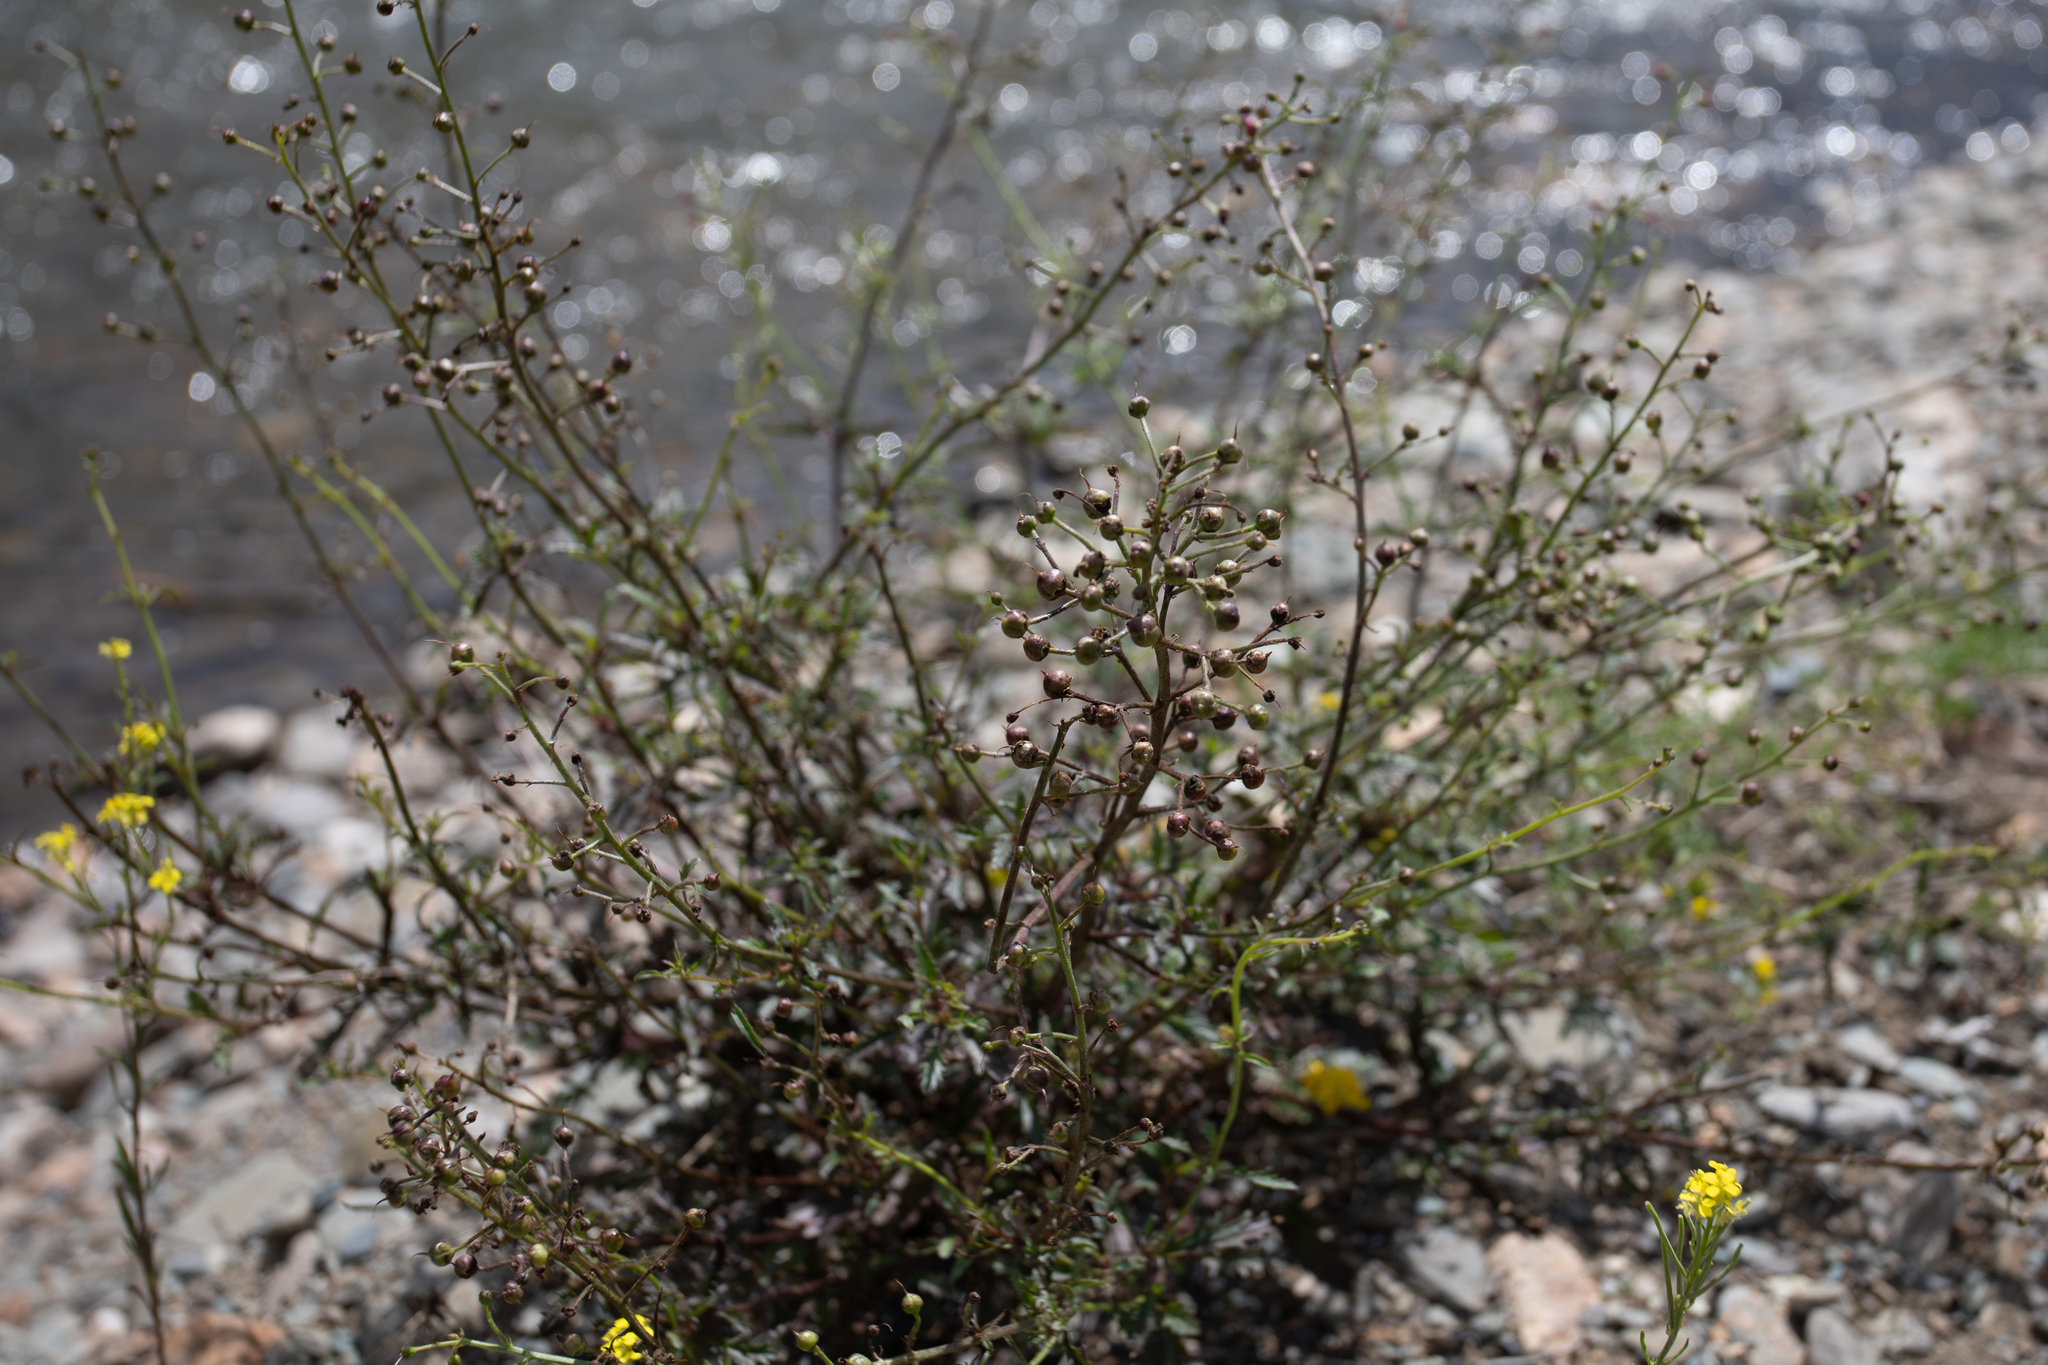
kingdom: Plantae
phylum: Tracheophyta
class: Magnoliopsida
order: Lamiales
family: Scrophulariaceae
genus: Scrophularia
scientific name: Scrophularia incisa
